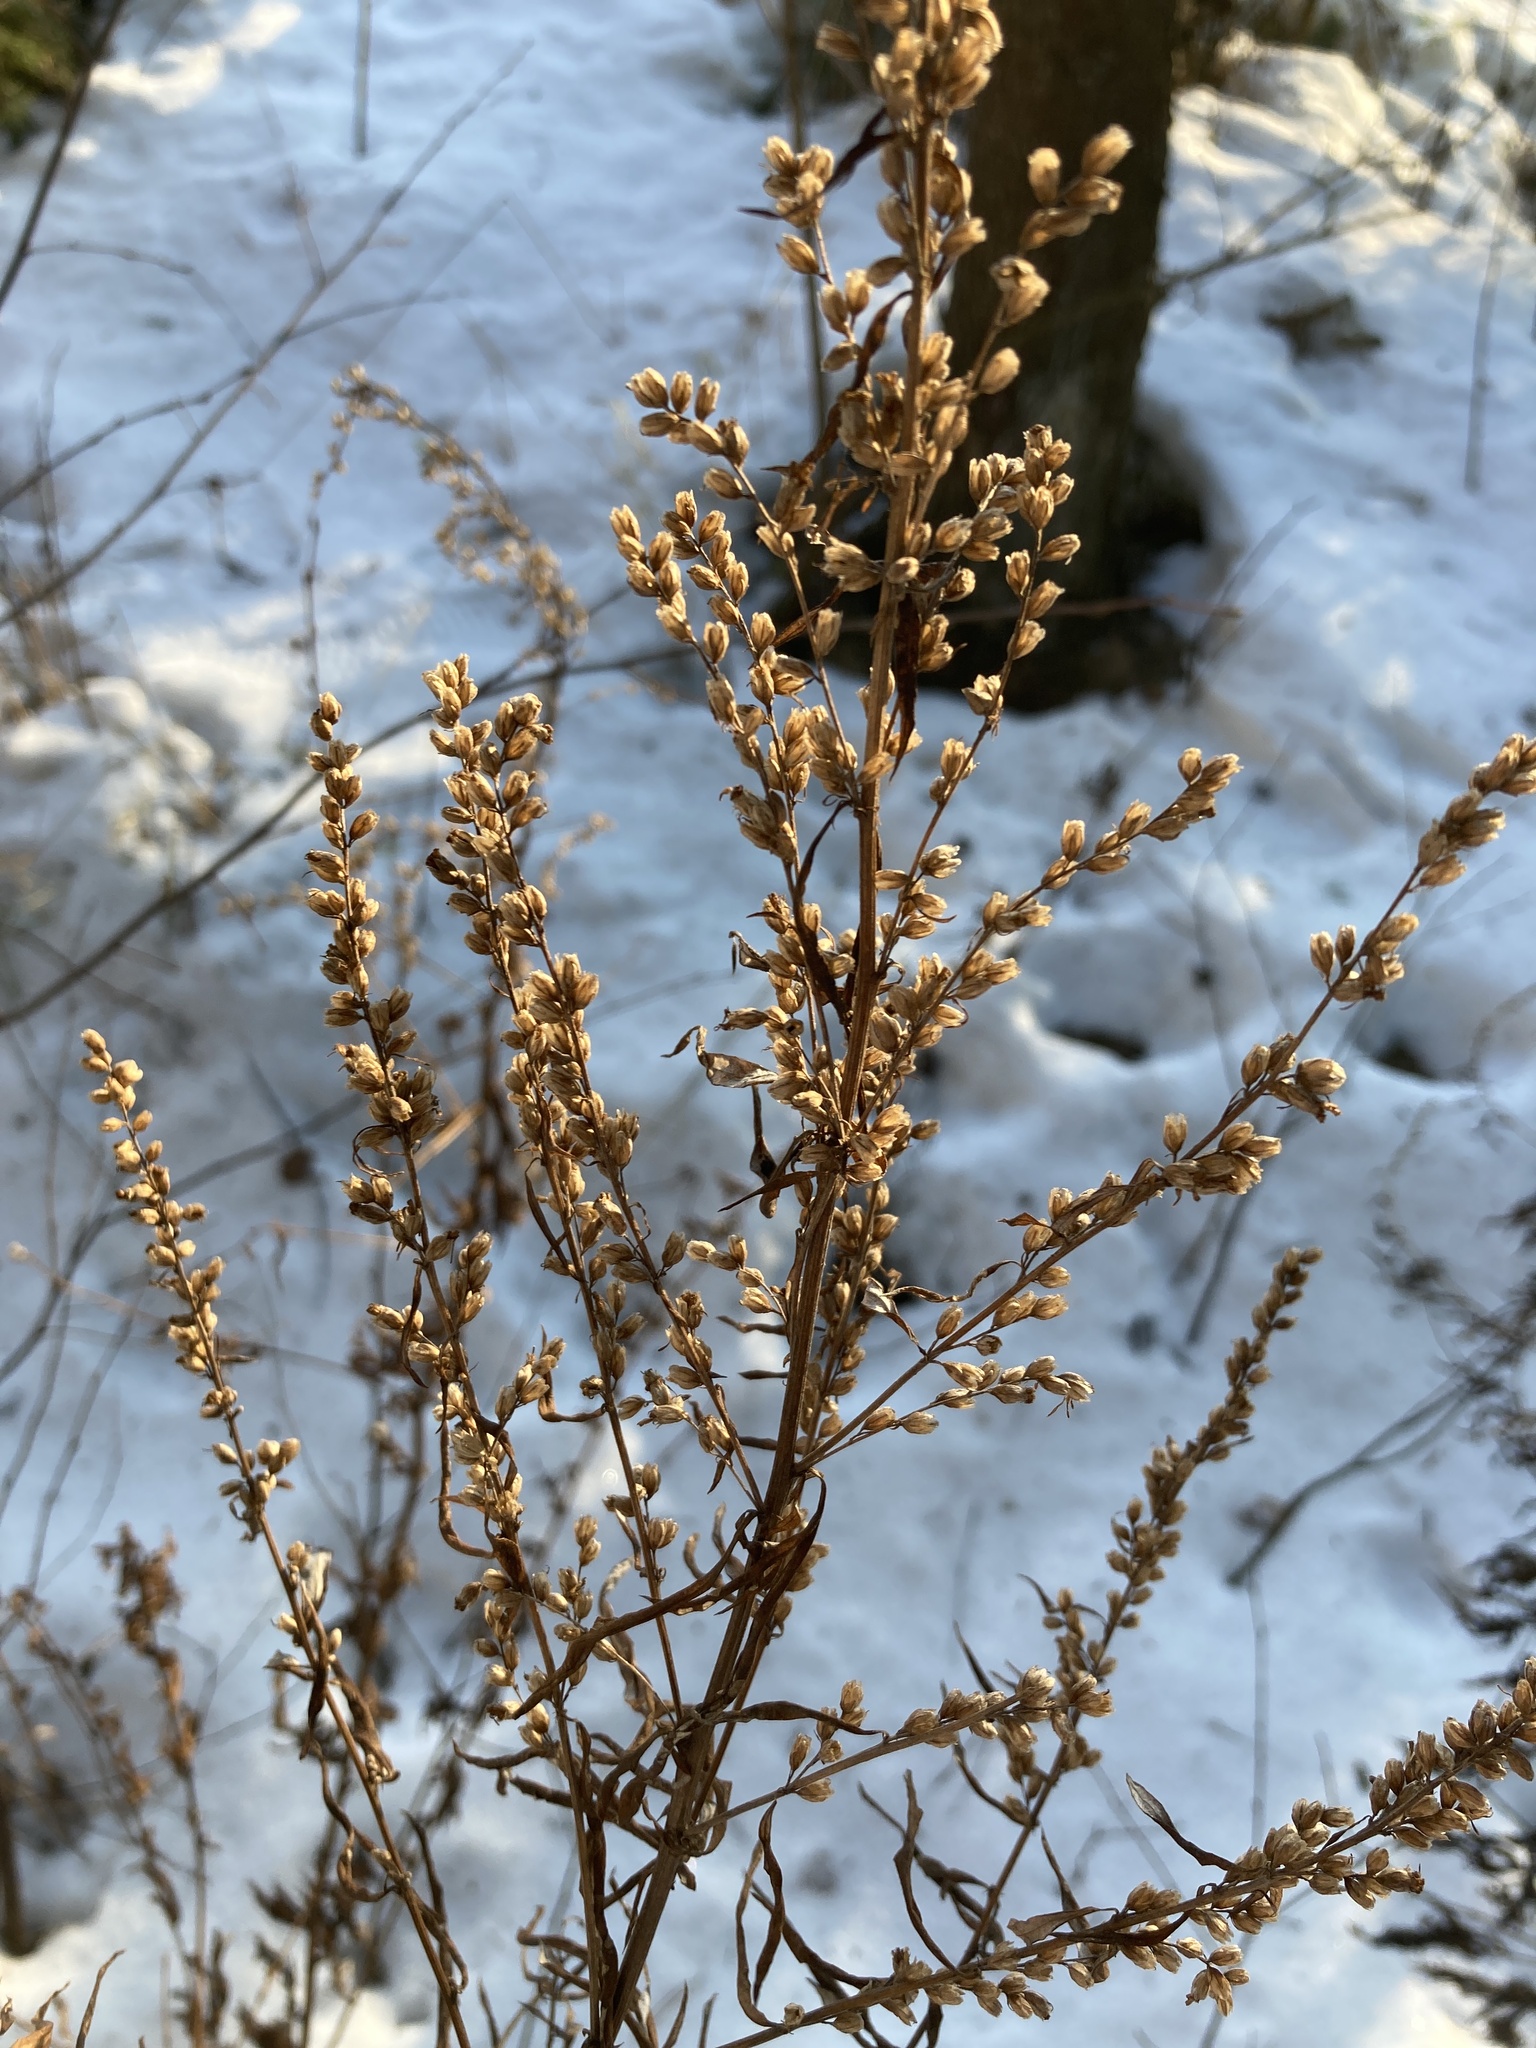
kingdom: Plantae
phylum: Tracheophyta
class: Magnoliopsida
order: Asterales
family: Asteraceae
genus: Artemisia
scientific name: Artemisia vulgaris
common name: Mugwort
